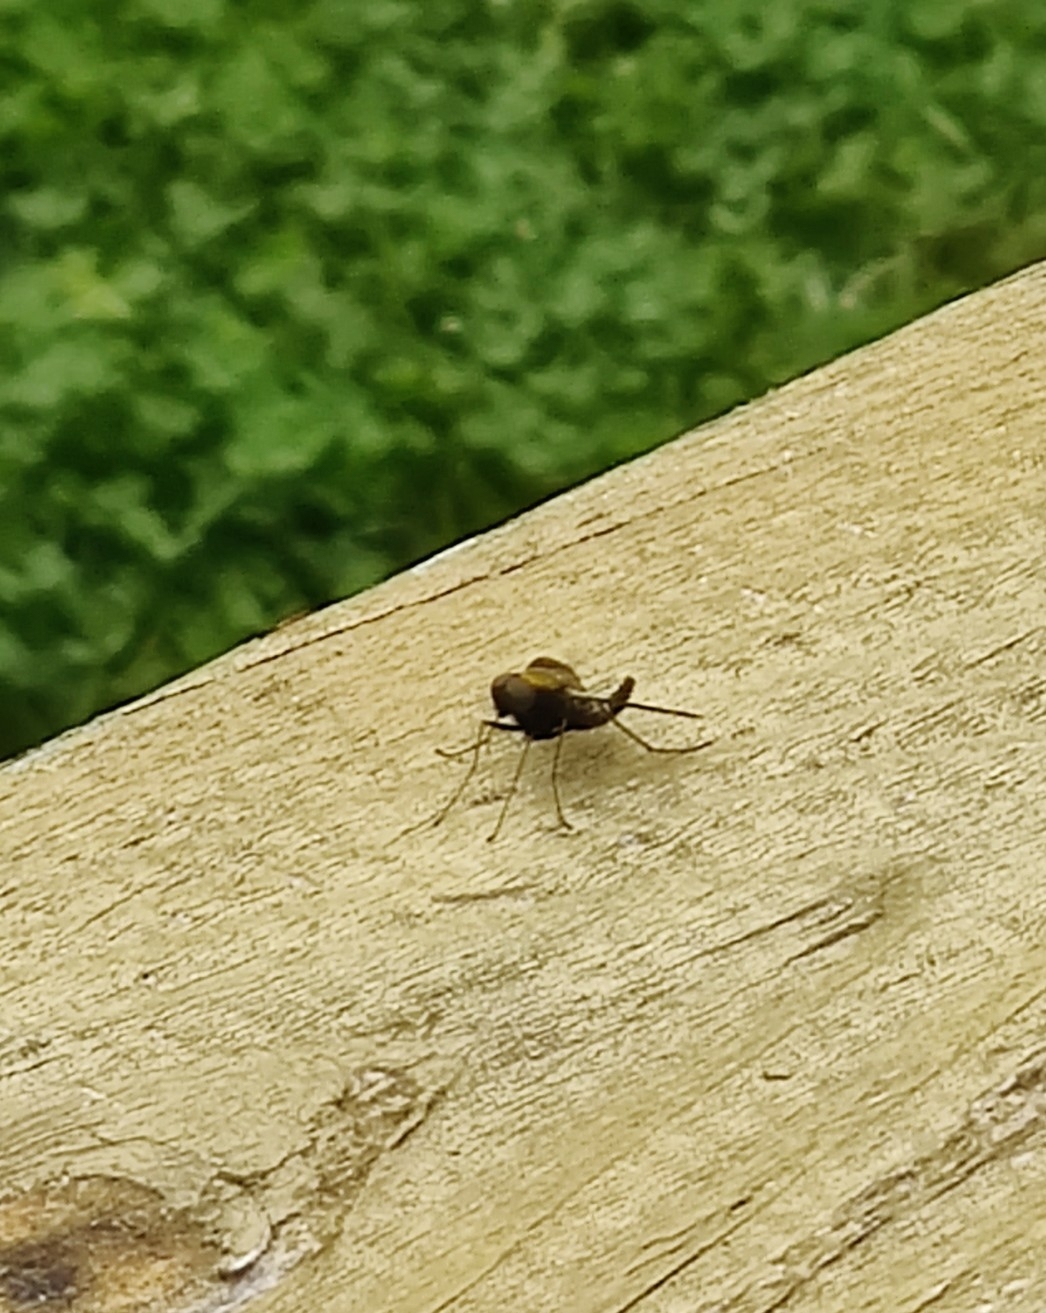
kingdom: Animalia
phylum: Arthropoda
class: Insecta
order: Diptera
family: Rhagionidae
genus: Chrysopilus
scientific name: Chrysopilus thoracicus
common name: Golden-backed snipe fly
